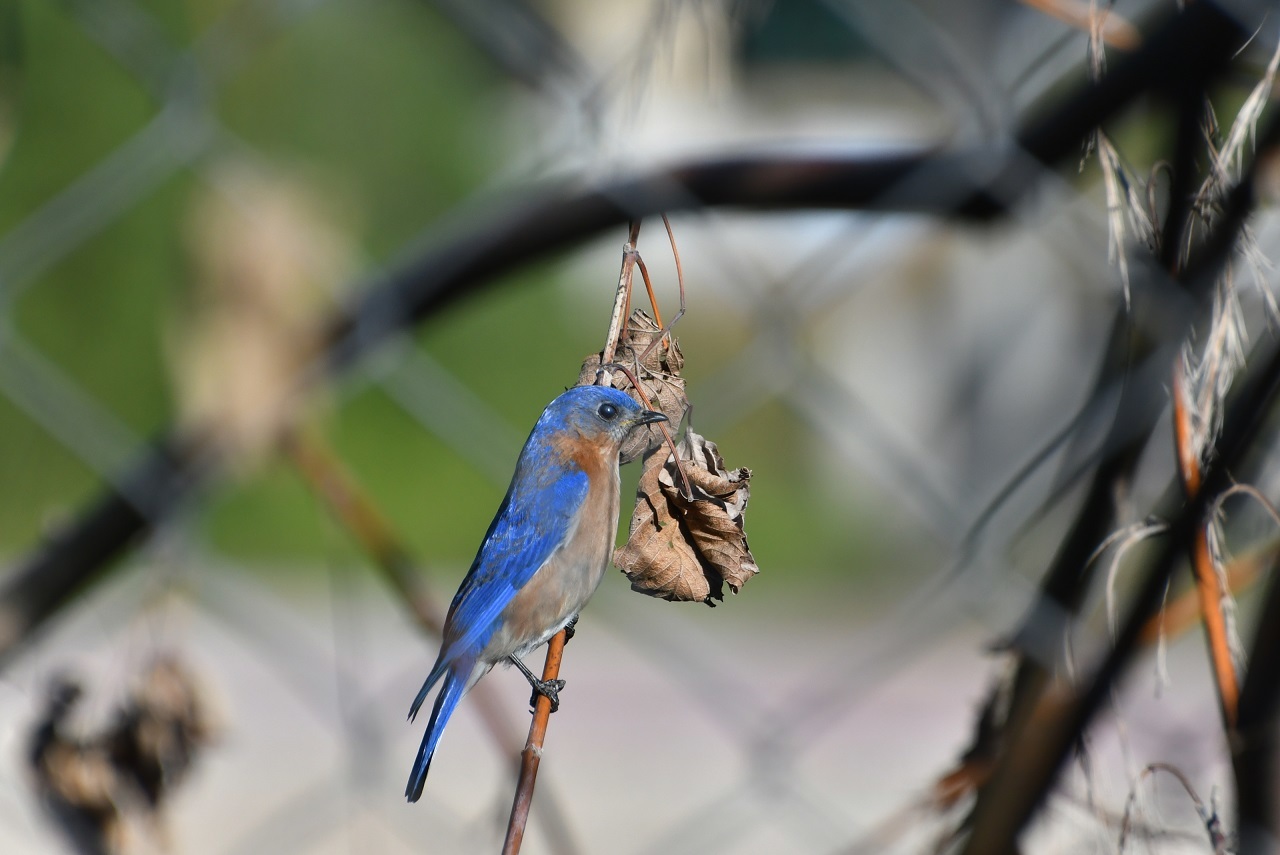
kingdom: Animalia
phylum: Chordata
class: Aves
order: Passeriformes
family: Turdidae
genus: Sialia
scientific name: Sialia sialis
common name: Eastern bluebird
